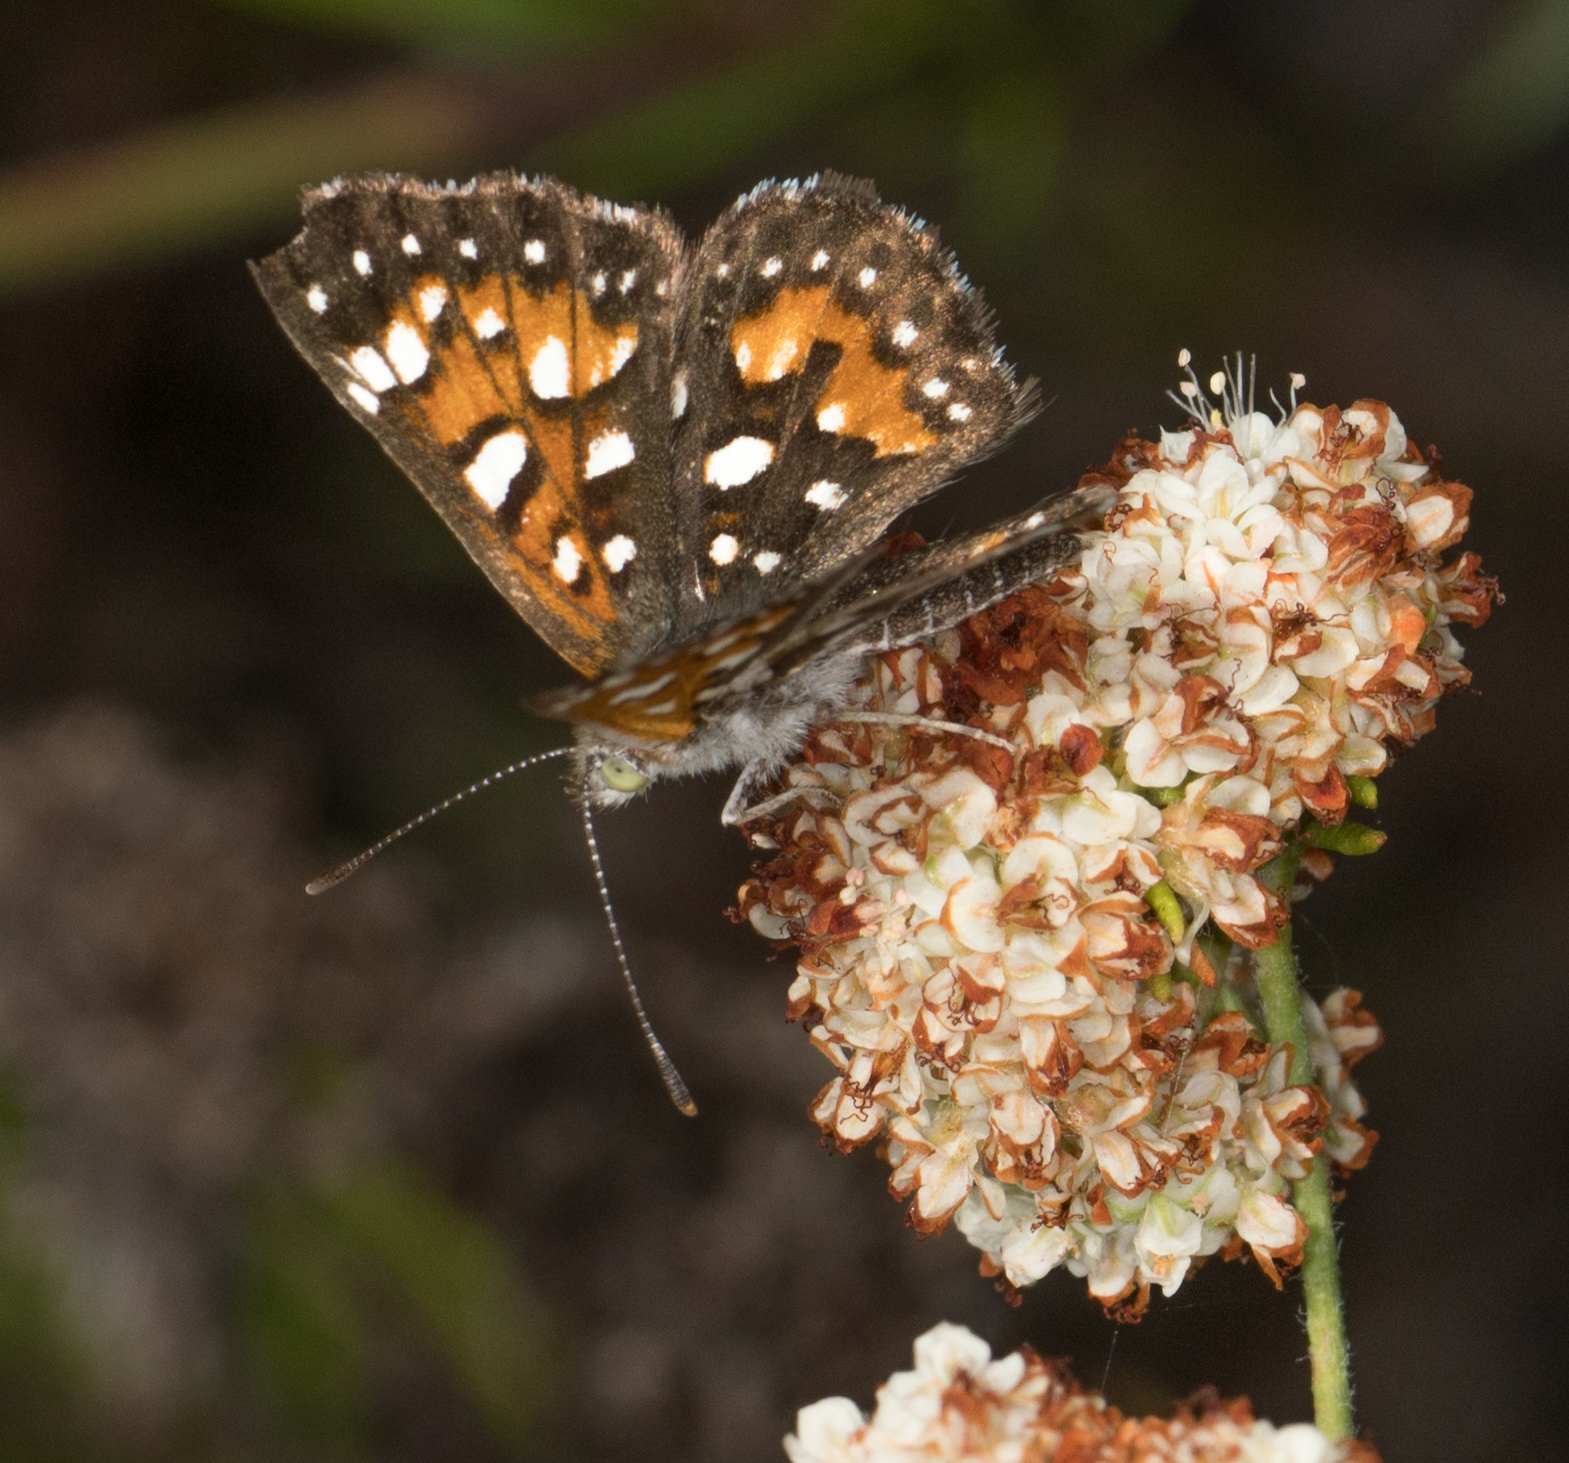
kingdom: Animalia
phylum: Arthropoda
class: Insecta
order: Lepidoptera
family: Riodinidae
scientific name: Riodinidae
